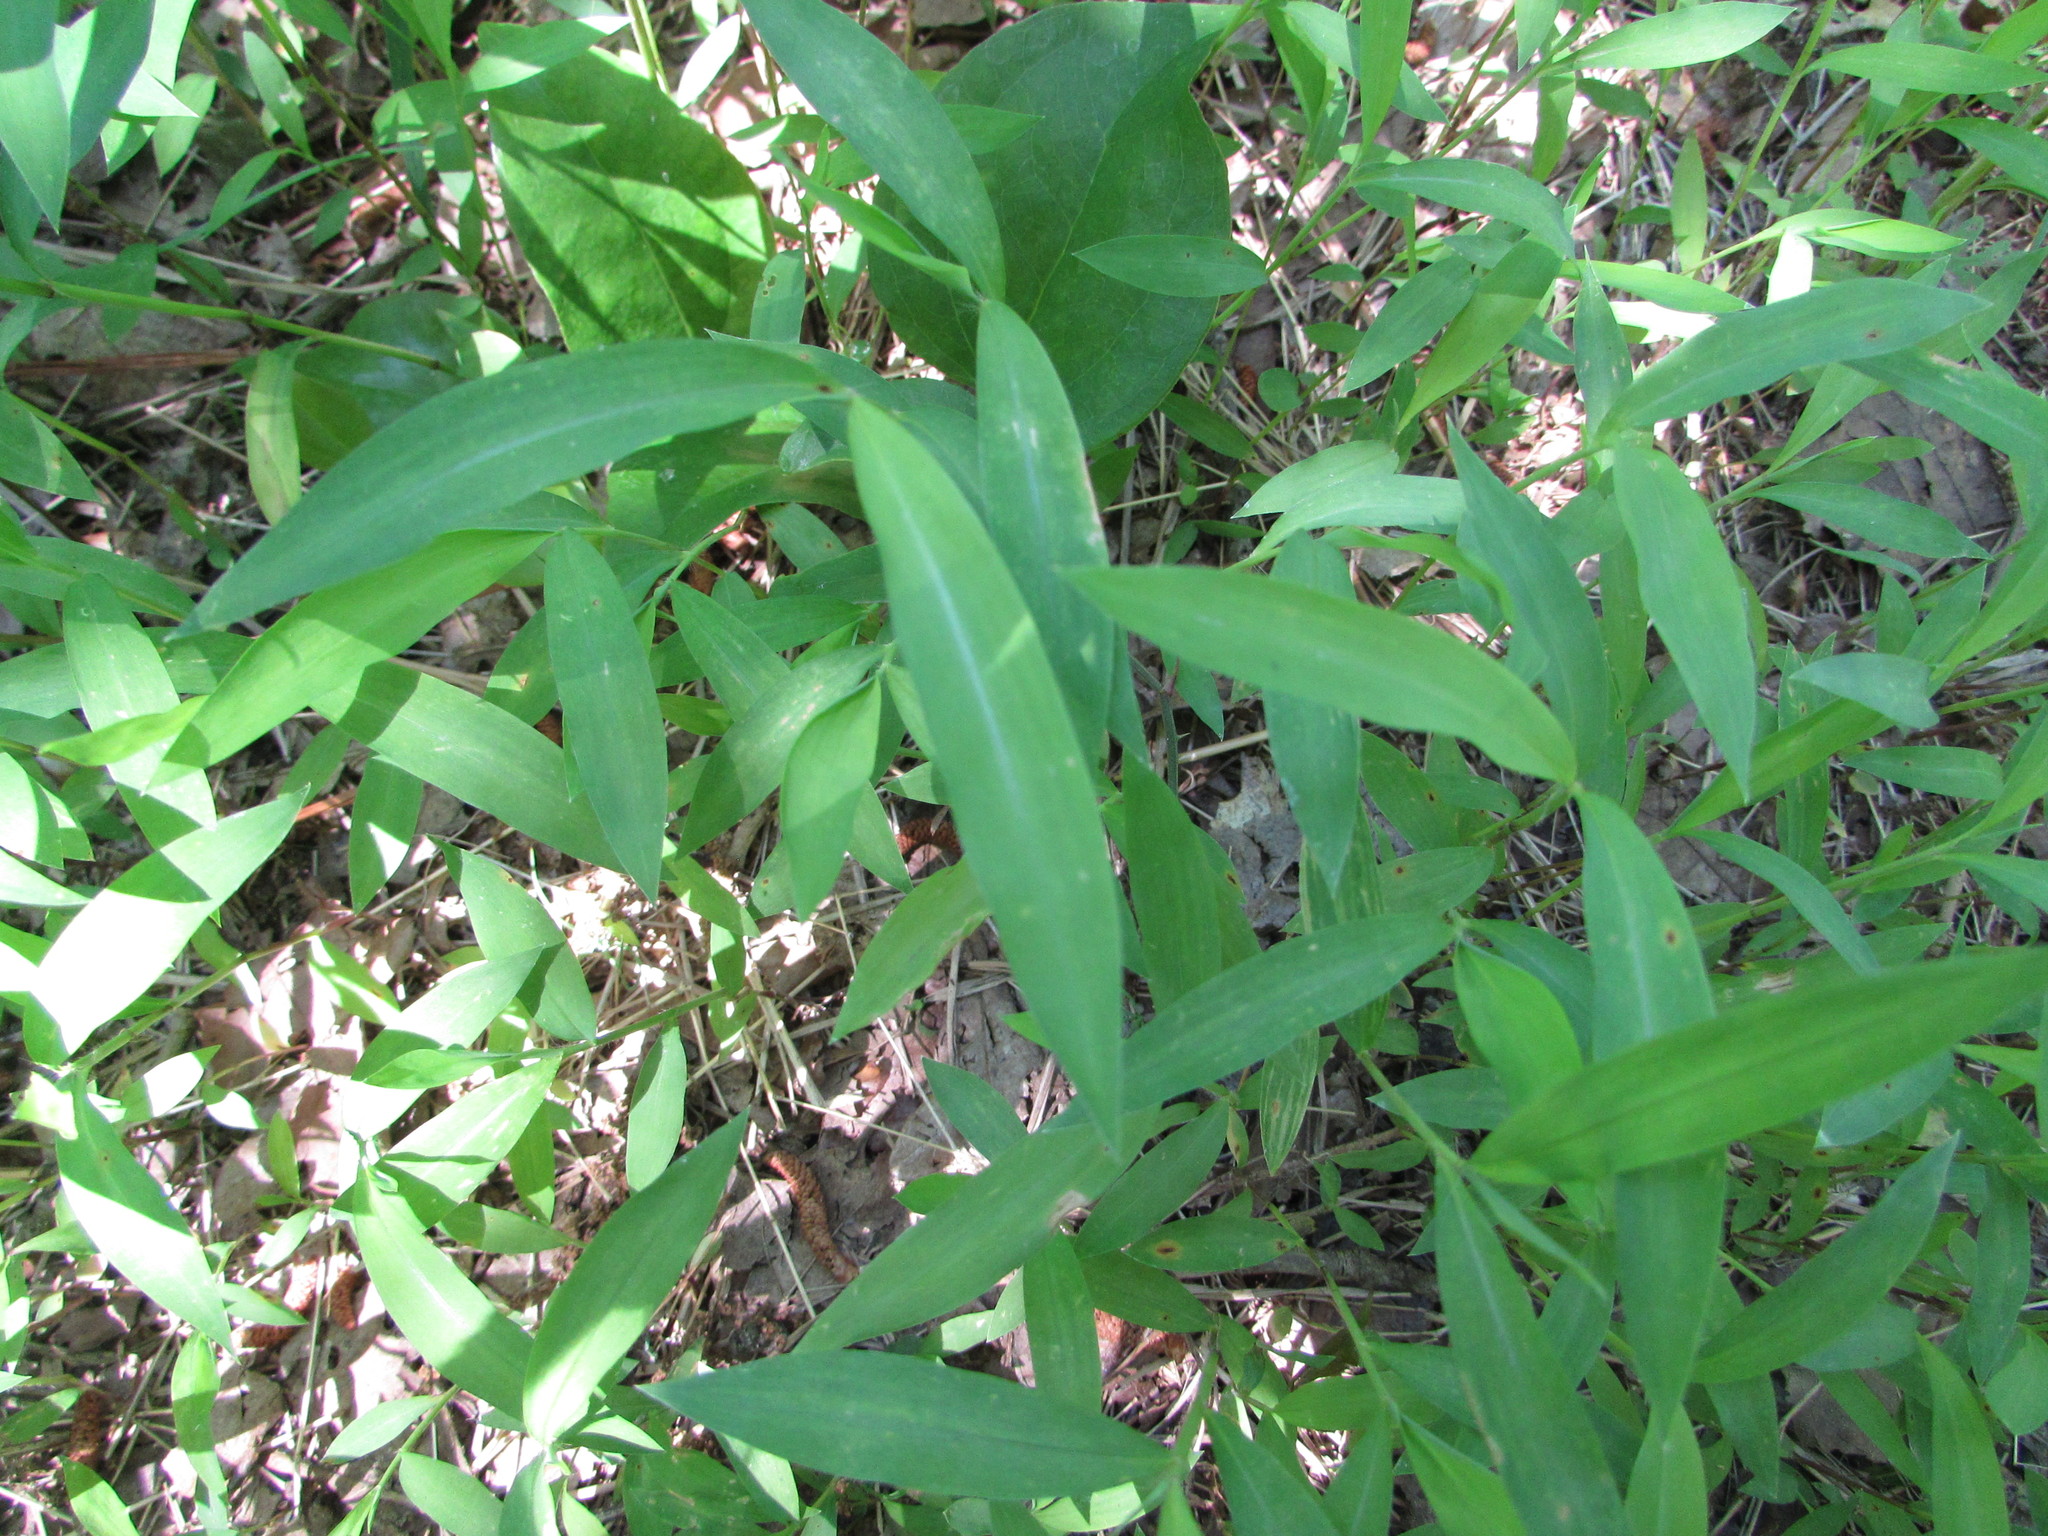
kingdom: Plantae
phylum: Tracheophyta
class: Liliopsida
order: Poales
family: Poaceae
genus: Microstegium
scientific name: Microstegium vimineum
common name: Japanese stiltgrass
